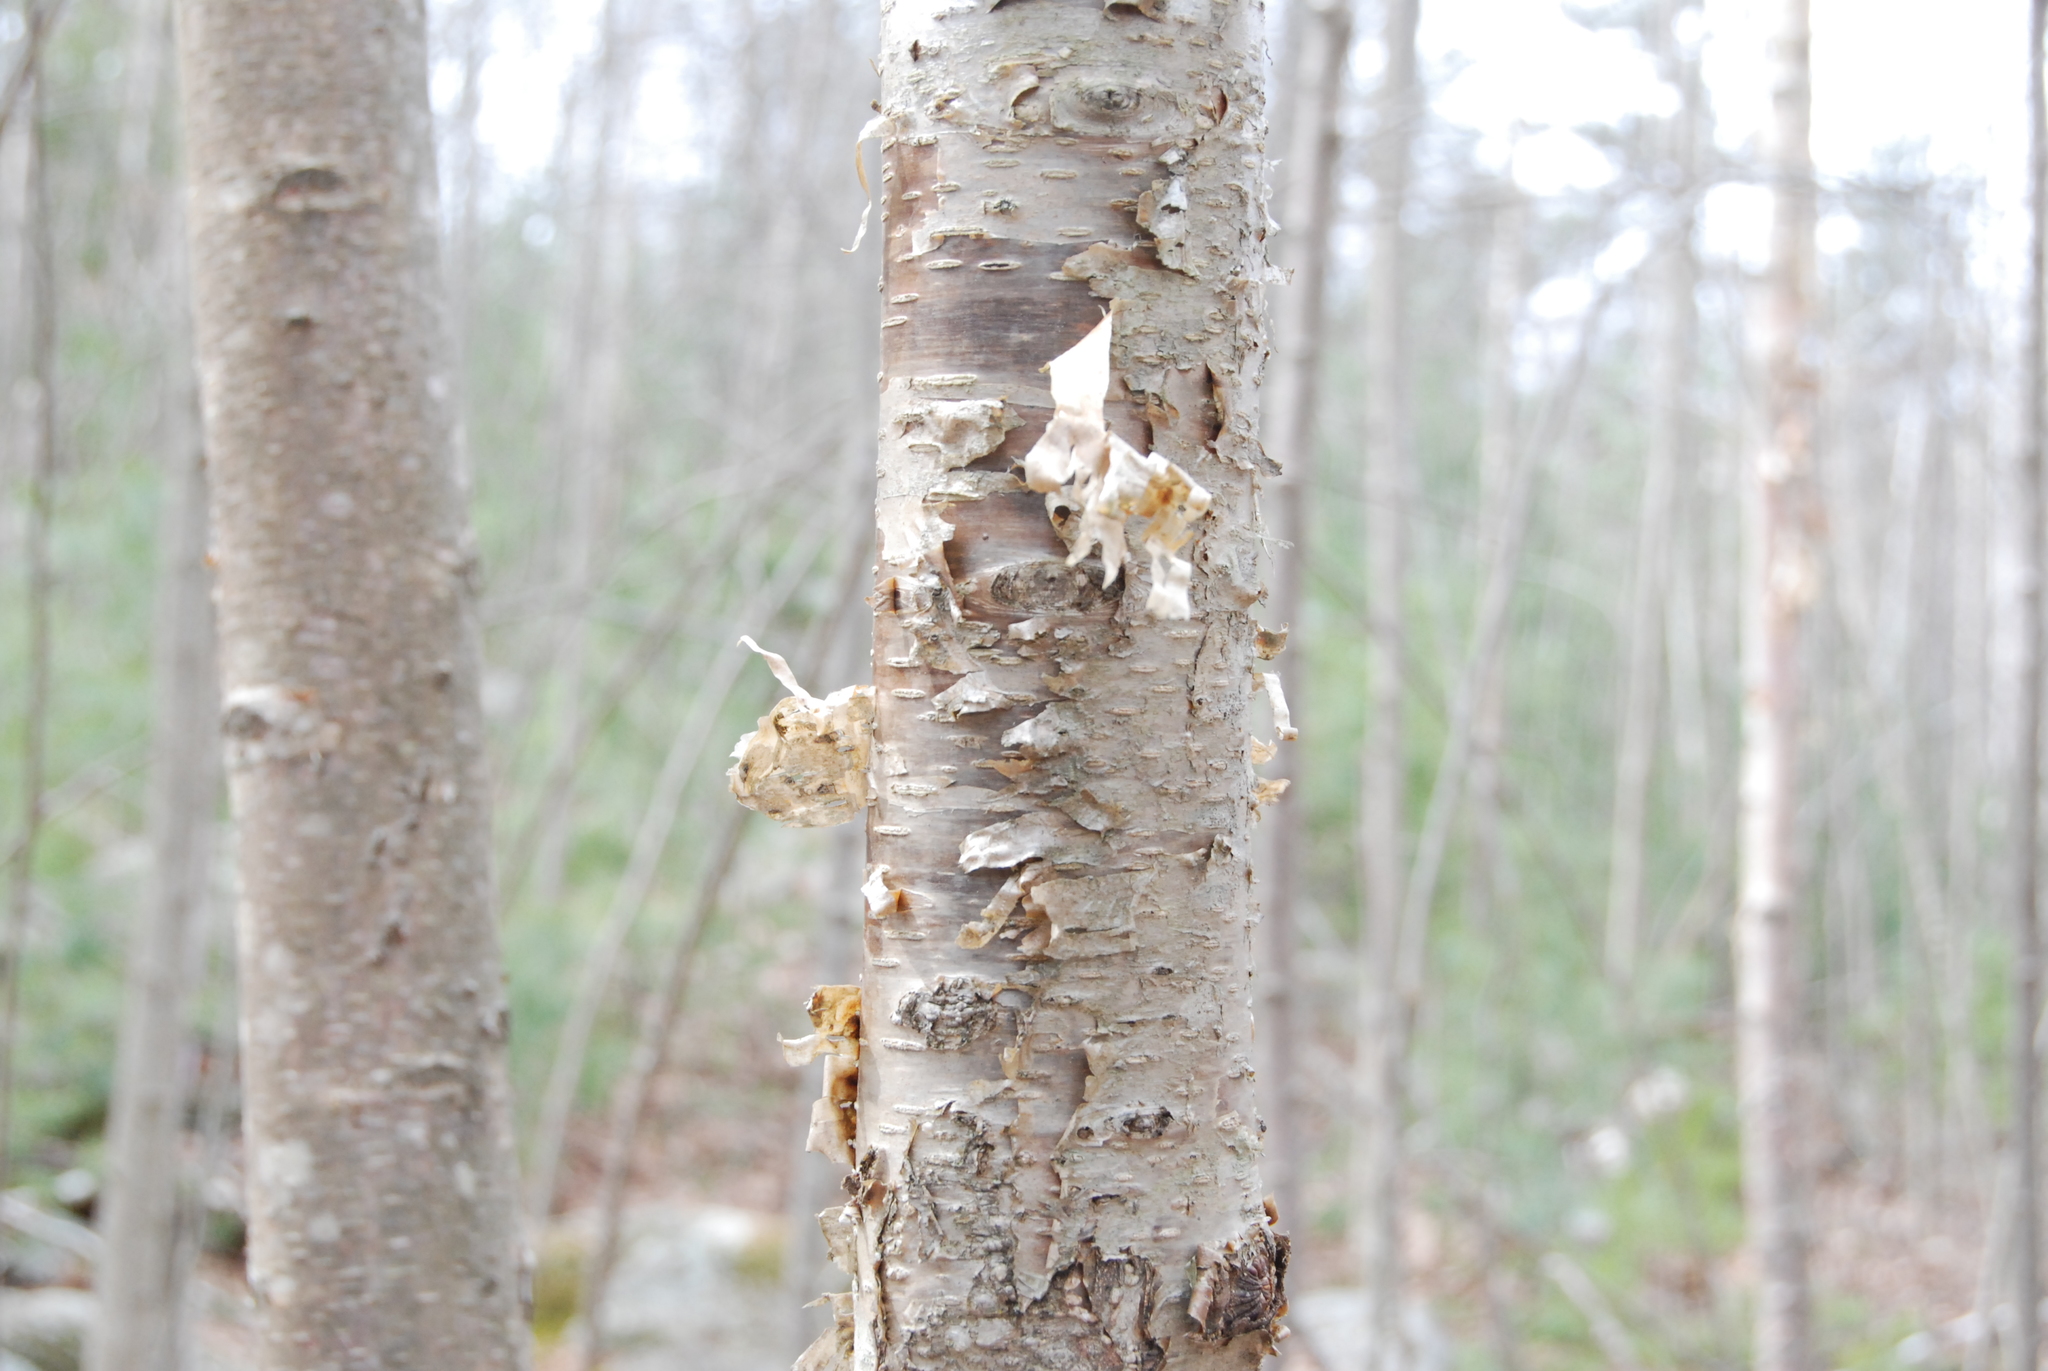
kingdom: Plantae
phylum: Tracheophyta
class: Magnoliopsida
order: Fagales
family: Betulaceae
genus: Betula
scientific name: Betula alleghaniensis
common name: Yellow birch
